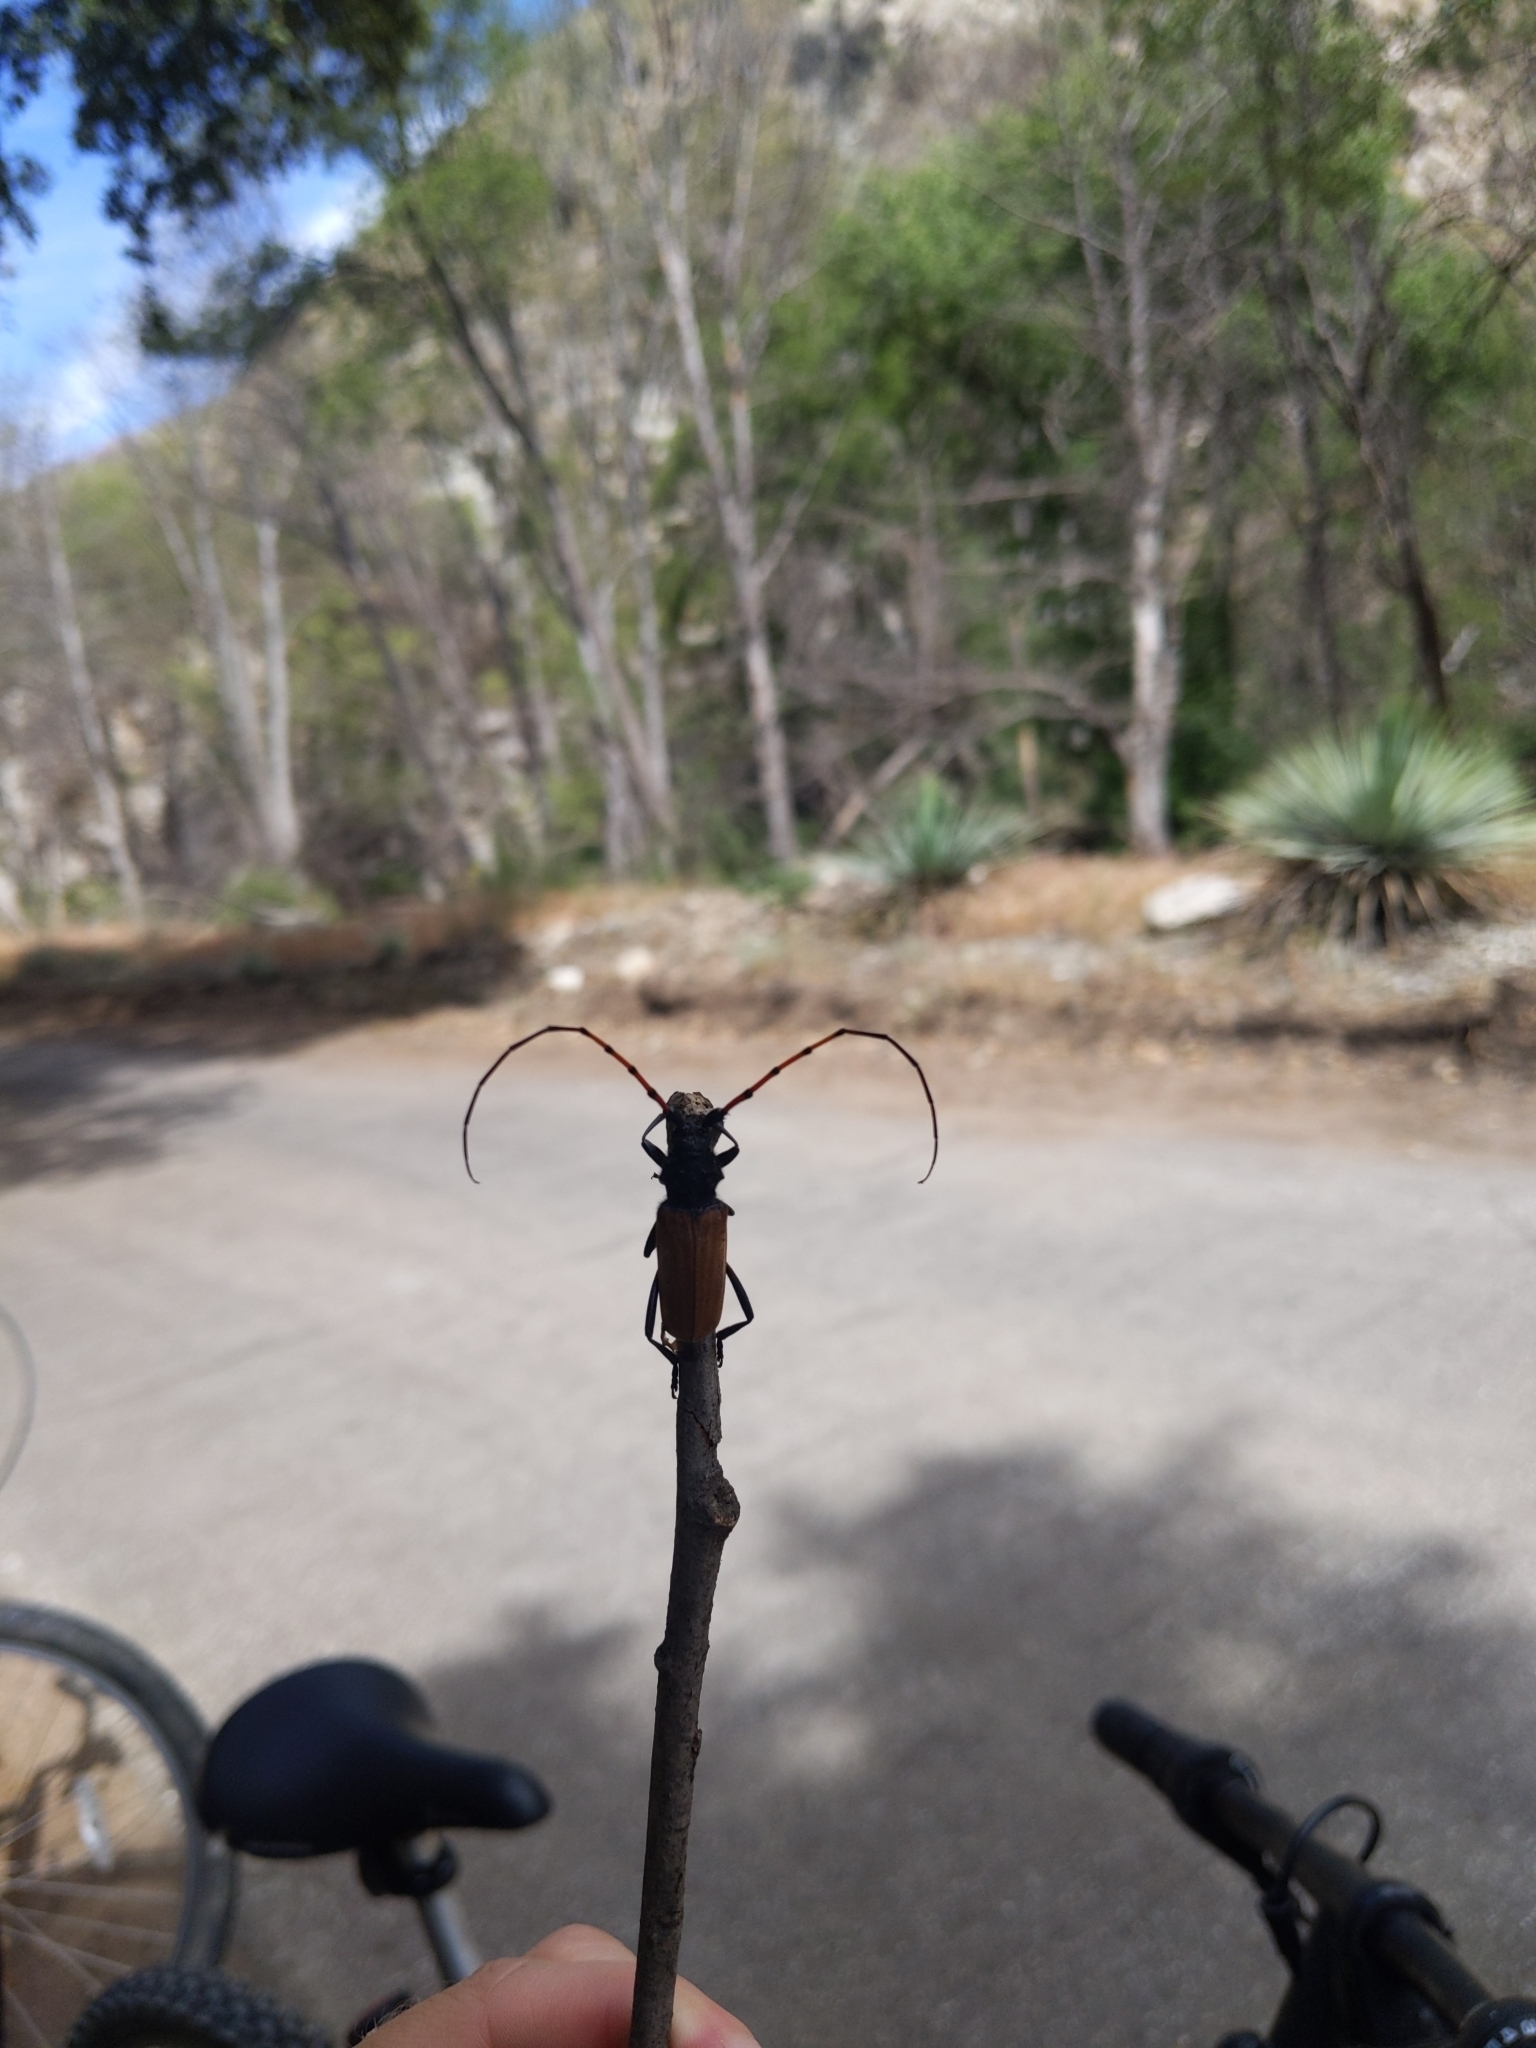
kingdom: Animalia
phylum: Arthropoda
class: Insecta
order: Coleoptera
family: Cerambycidae
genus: Tragidion
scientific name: Tragidion gracilipes
